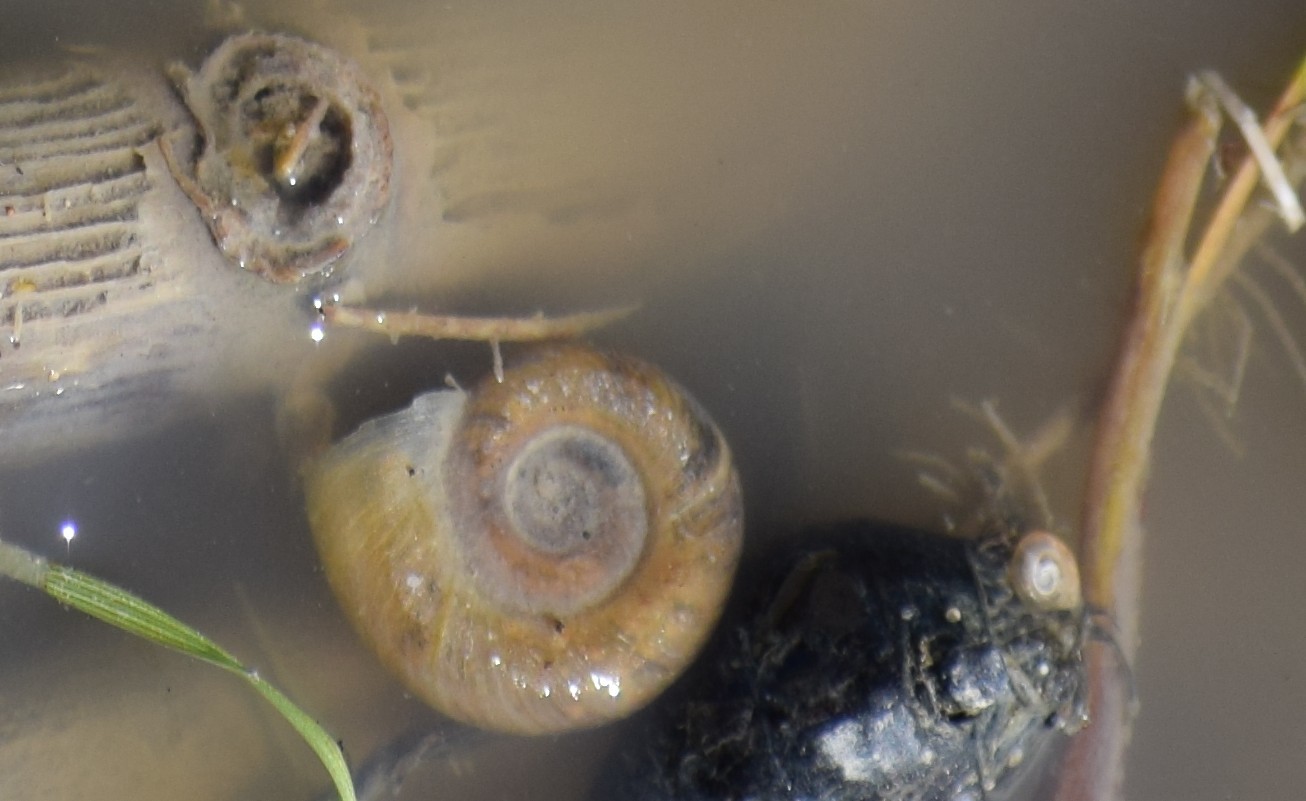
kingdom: Animalia
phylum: Mollusca
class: Gastropoda
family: Planorbidae
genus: Planorbarius
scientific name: Planorbarius corneus
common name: Great ramshorn
